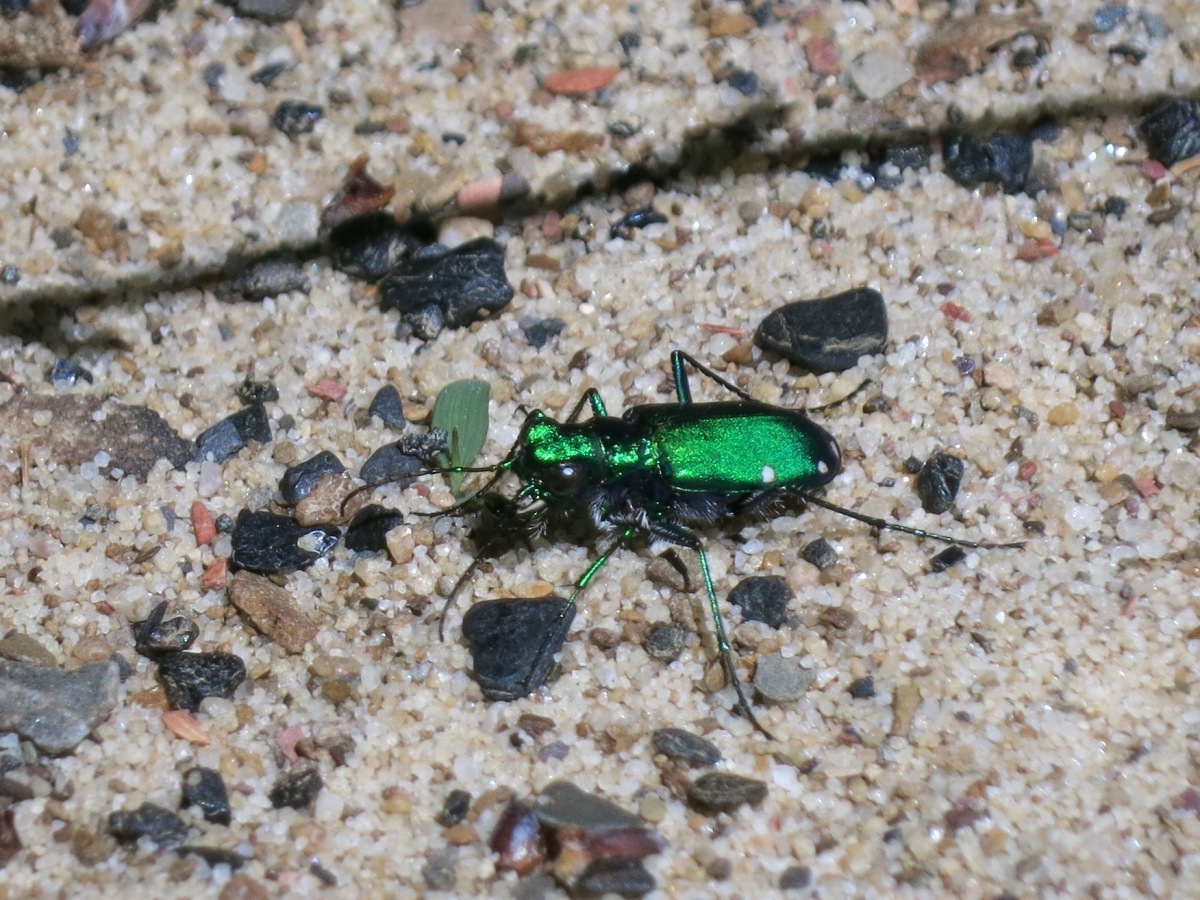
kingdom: Animalia
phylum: Arthropoda
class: Insecta
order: Coleoptera
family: Carabidae
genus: Cicindela
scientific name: Cicindela sexguttata
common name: Six-spotted tiger beetle
